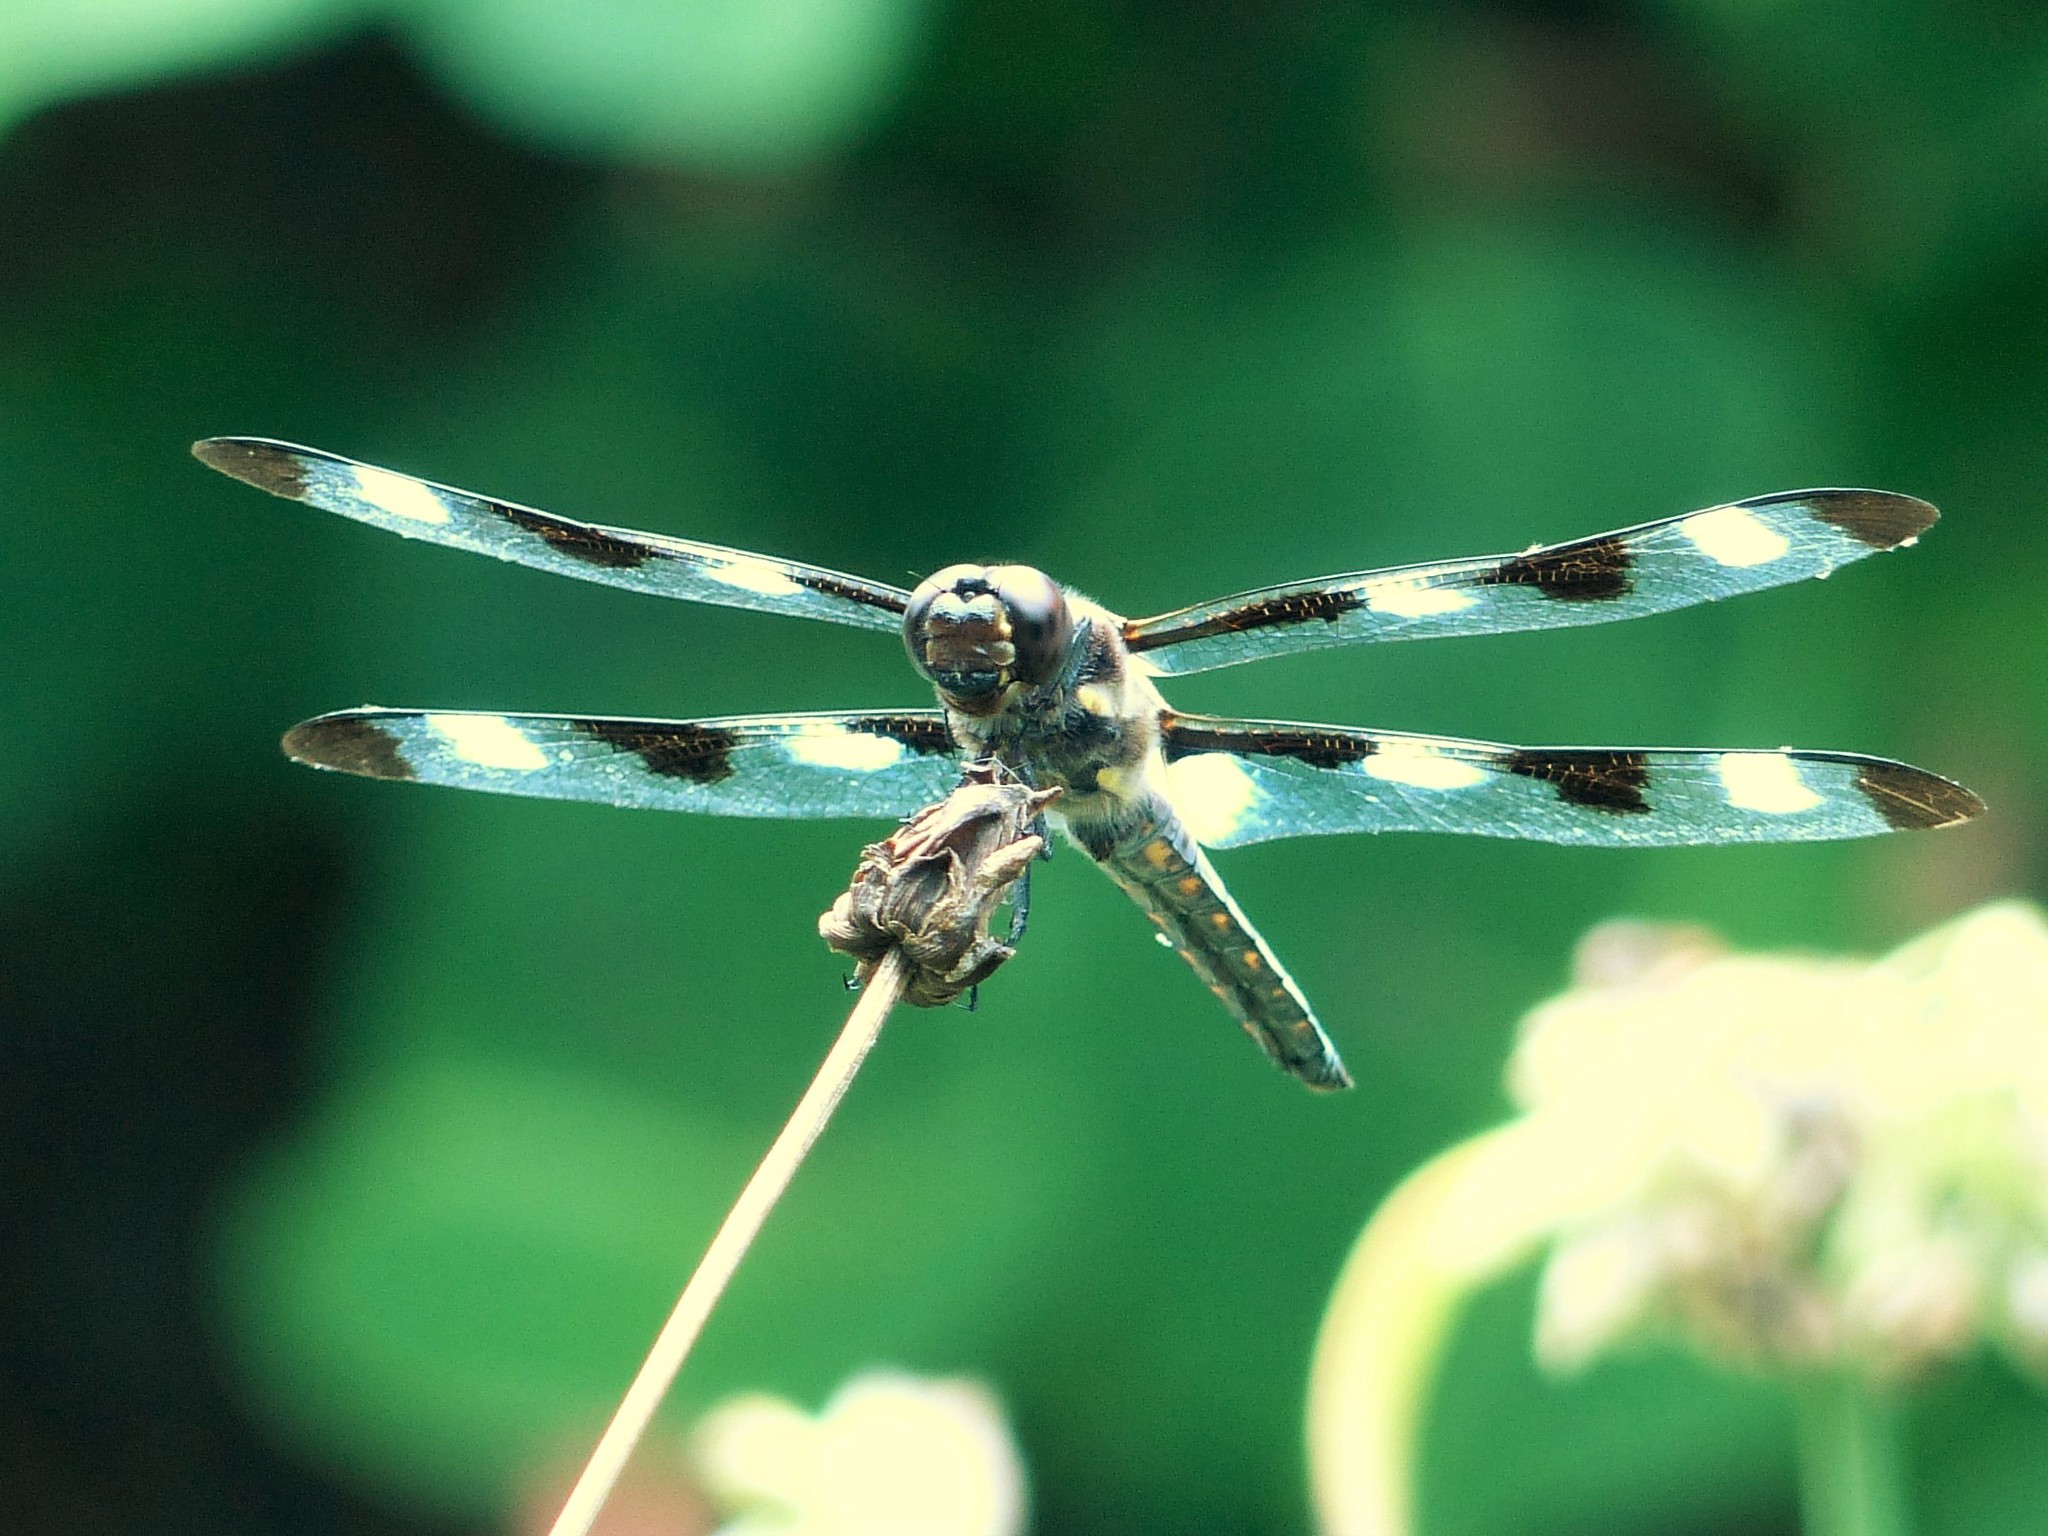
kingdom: Animalia
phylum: Arthropoda
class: Insecta
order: Odonata
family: Libellulidae
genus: Libellula
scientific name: Libellula pulchella
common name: Twelve-spotted skimmer
